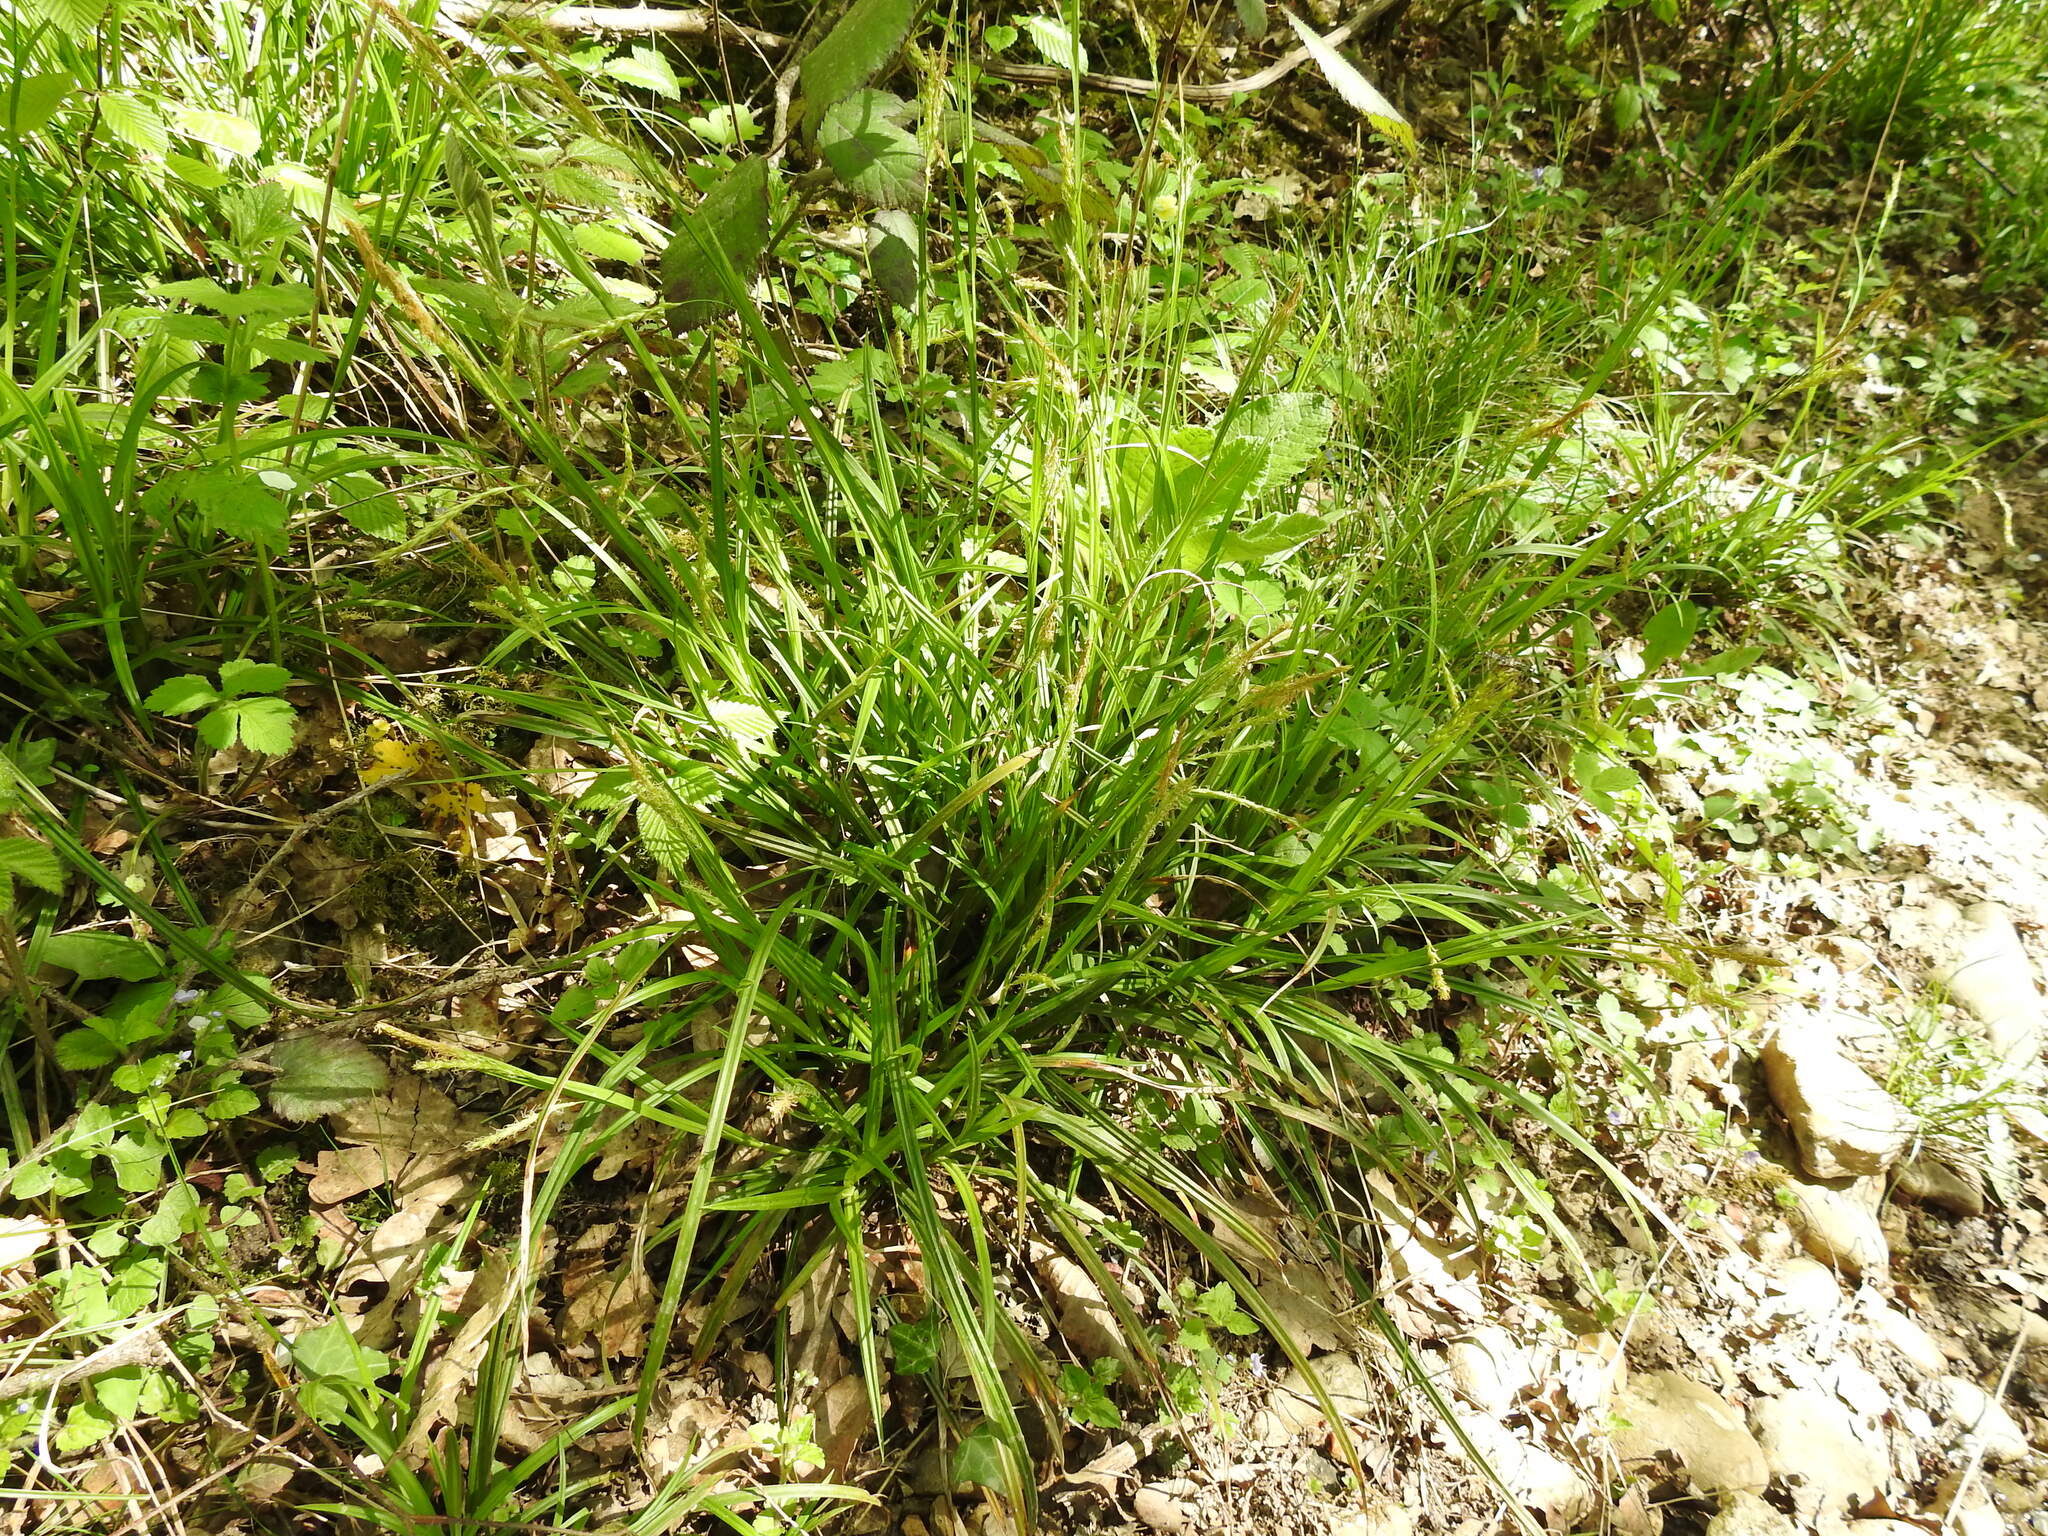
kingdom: Plantae
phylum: Tracheophyta
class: Liliopsida
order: Poales
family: Cyperaceae
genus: Carex
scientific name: Carex sylvatica
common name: Wood-sedge
